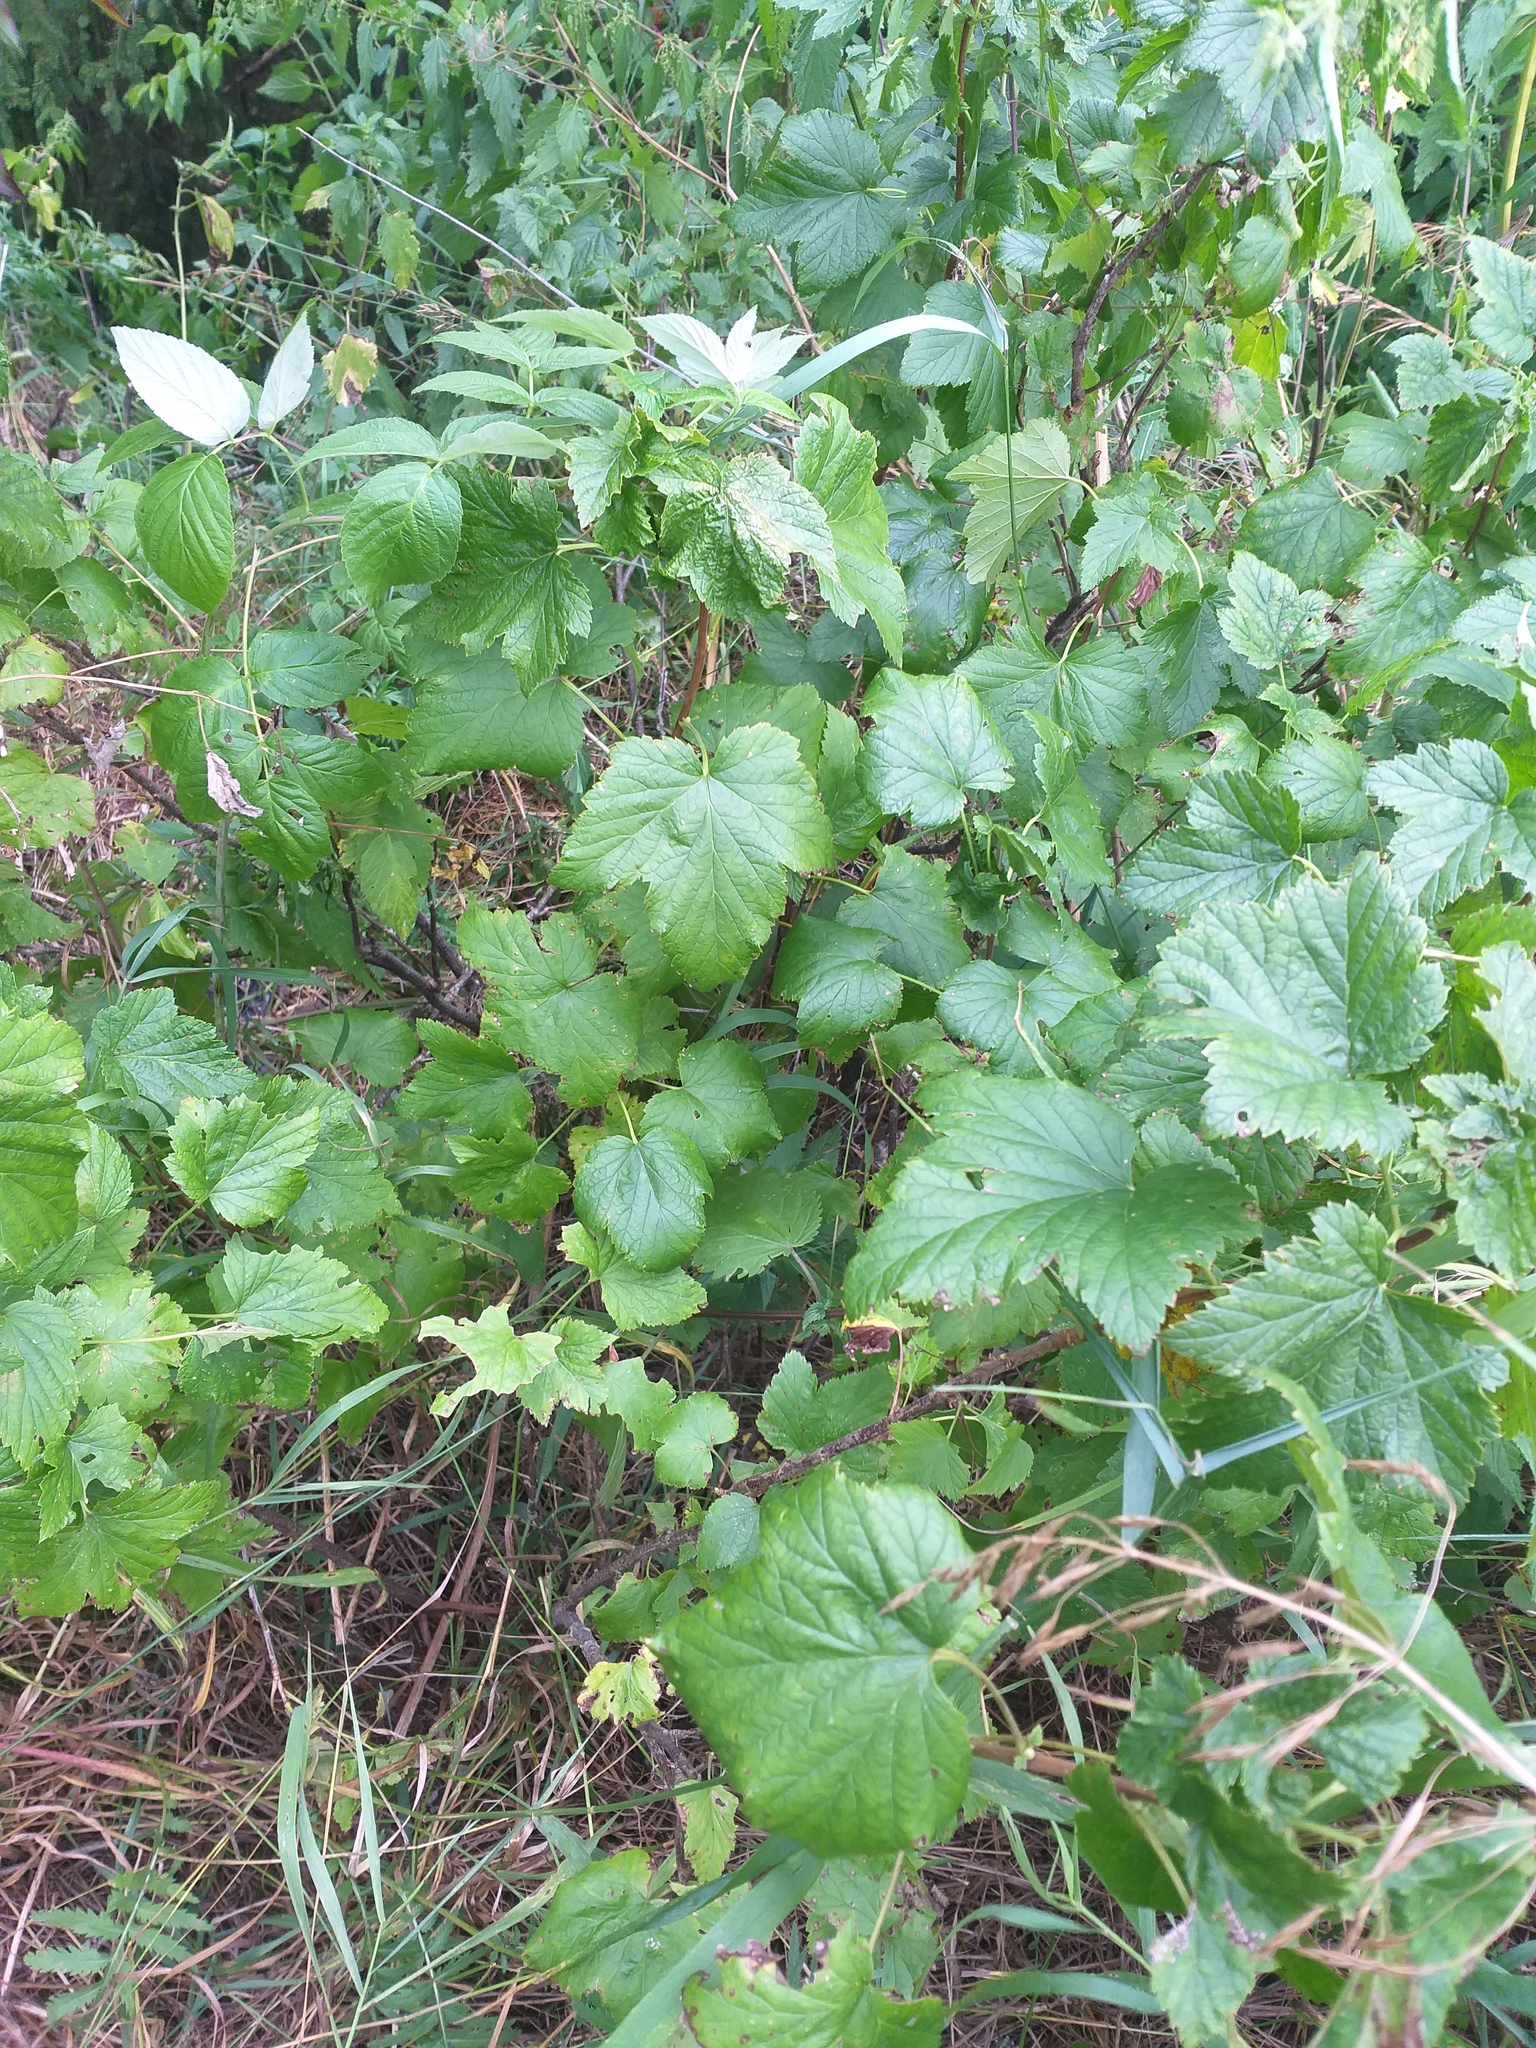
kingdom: Plantae
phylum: Tracheophyta
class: Magnoliopsida
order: Saxifragales
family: Grossulariaceae
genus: Ribes
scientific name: Ribes nigrum
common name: Black currant
